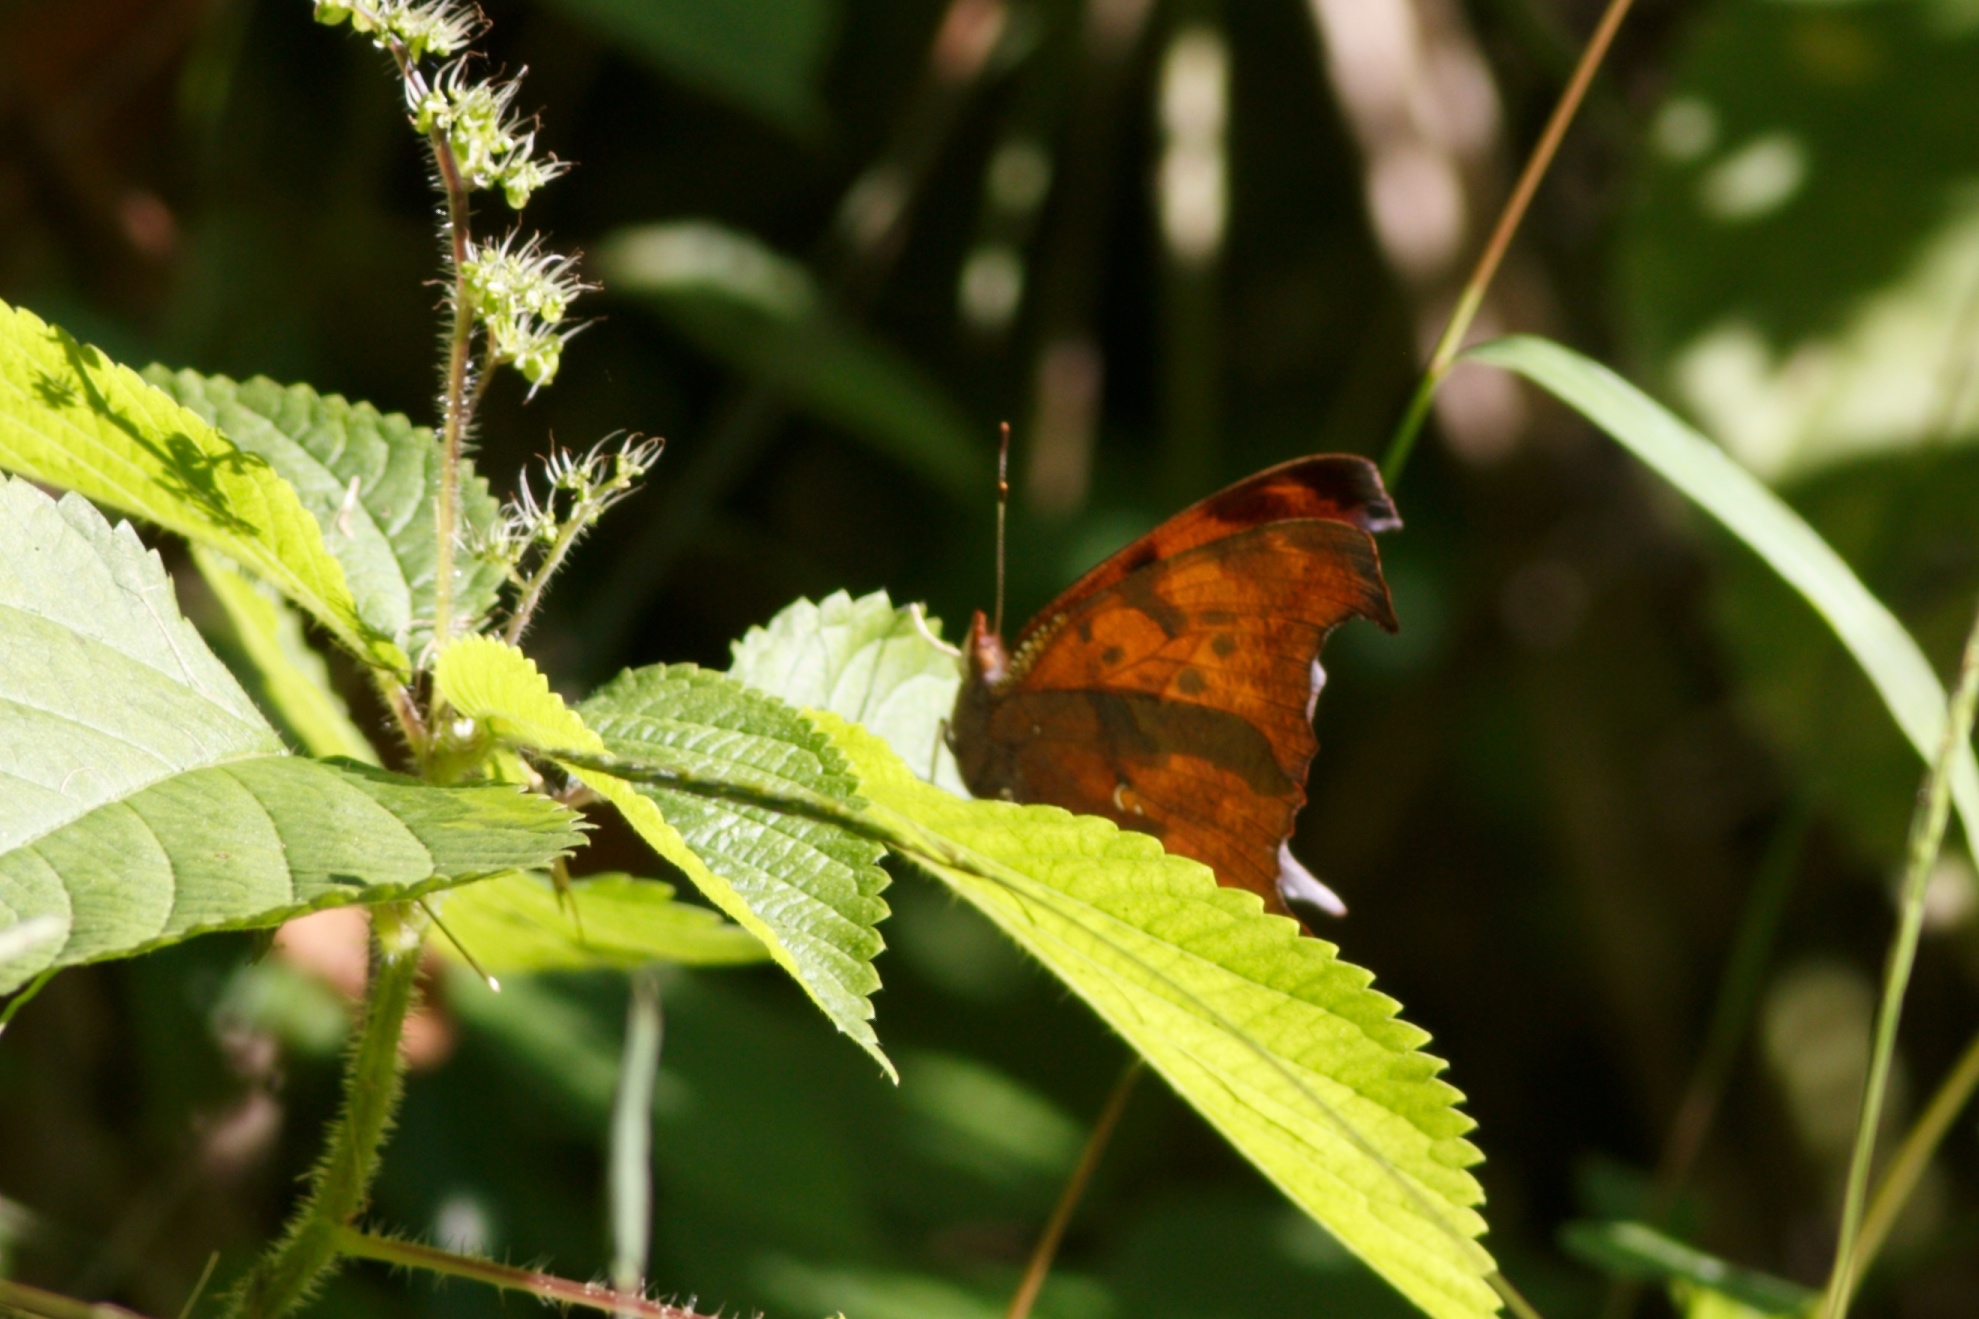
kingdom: Animalia
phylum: Arthropoda
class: Insecta
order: Lepidoptera
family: Nymphalidae
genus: Polygonia
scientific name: Polygonia interrogationis
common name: Question mark
